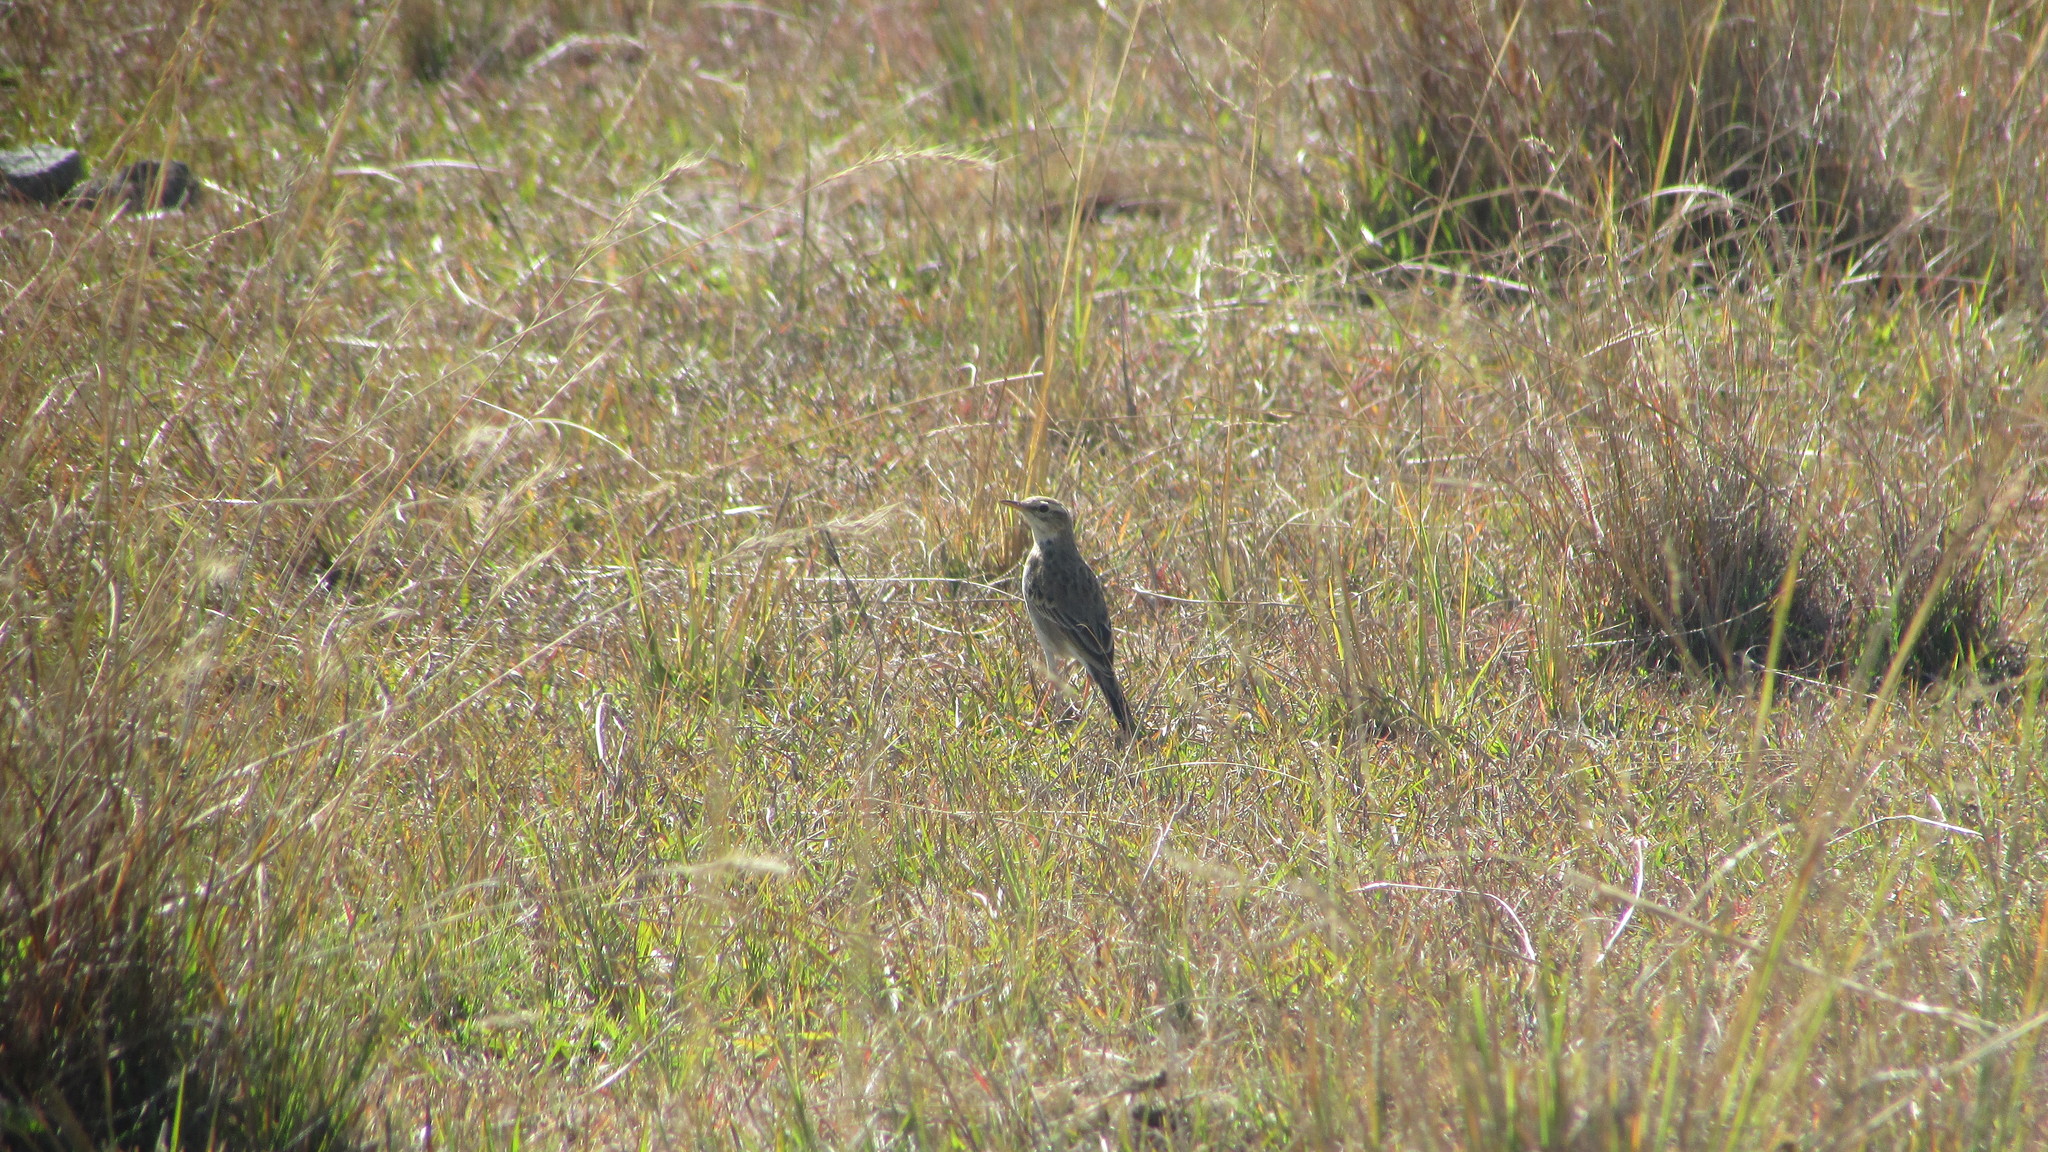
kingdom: Animalia
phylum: Chordata
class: Aves
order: Passeriformes
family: Motacillidae
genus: Anthus
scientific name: Anthus cinnamomeus
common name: African pipit
